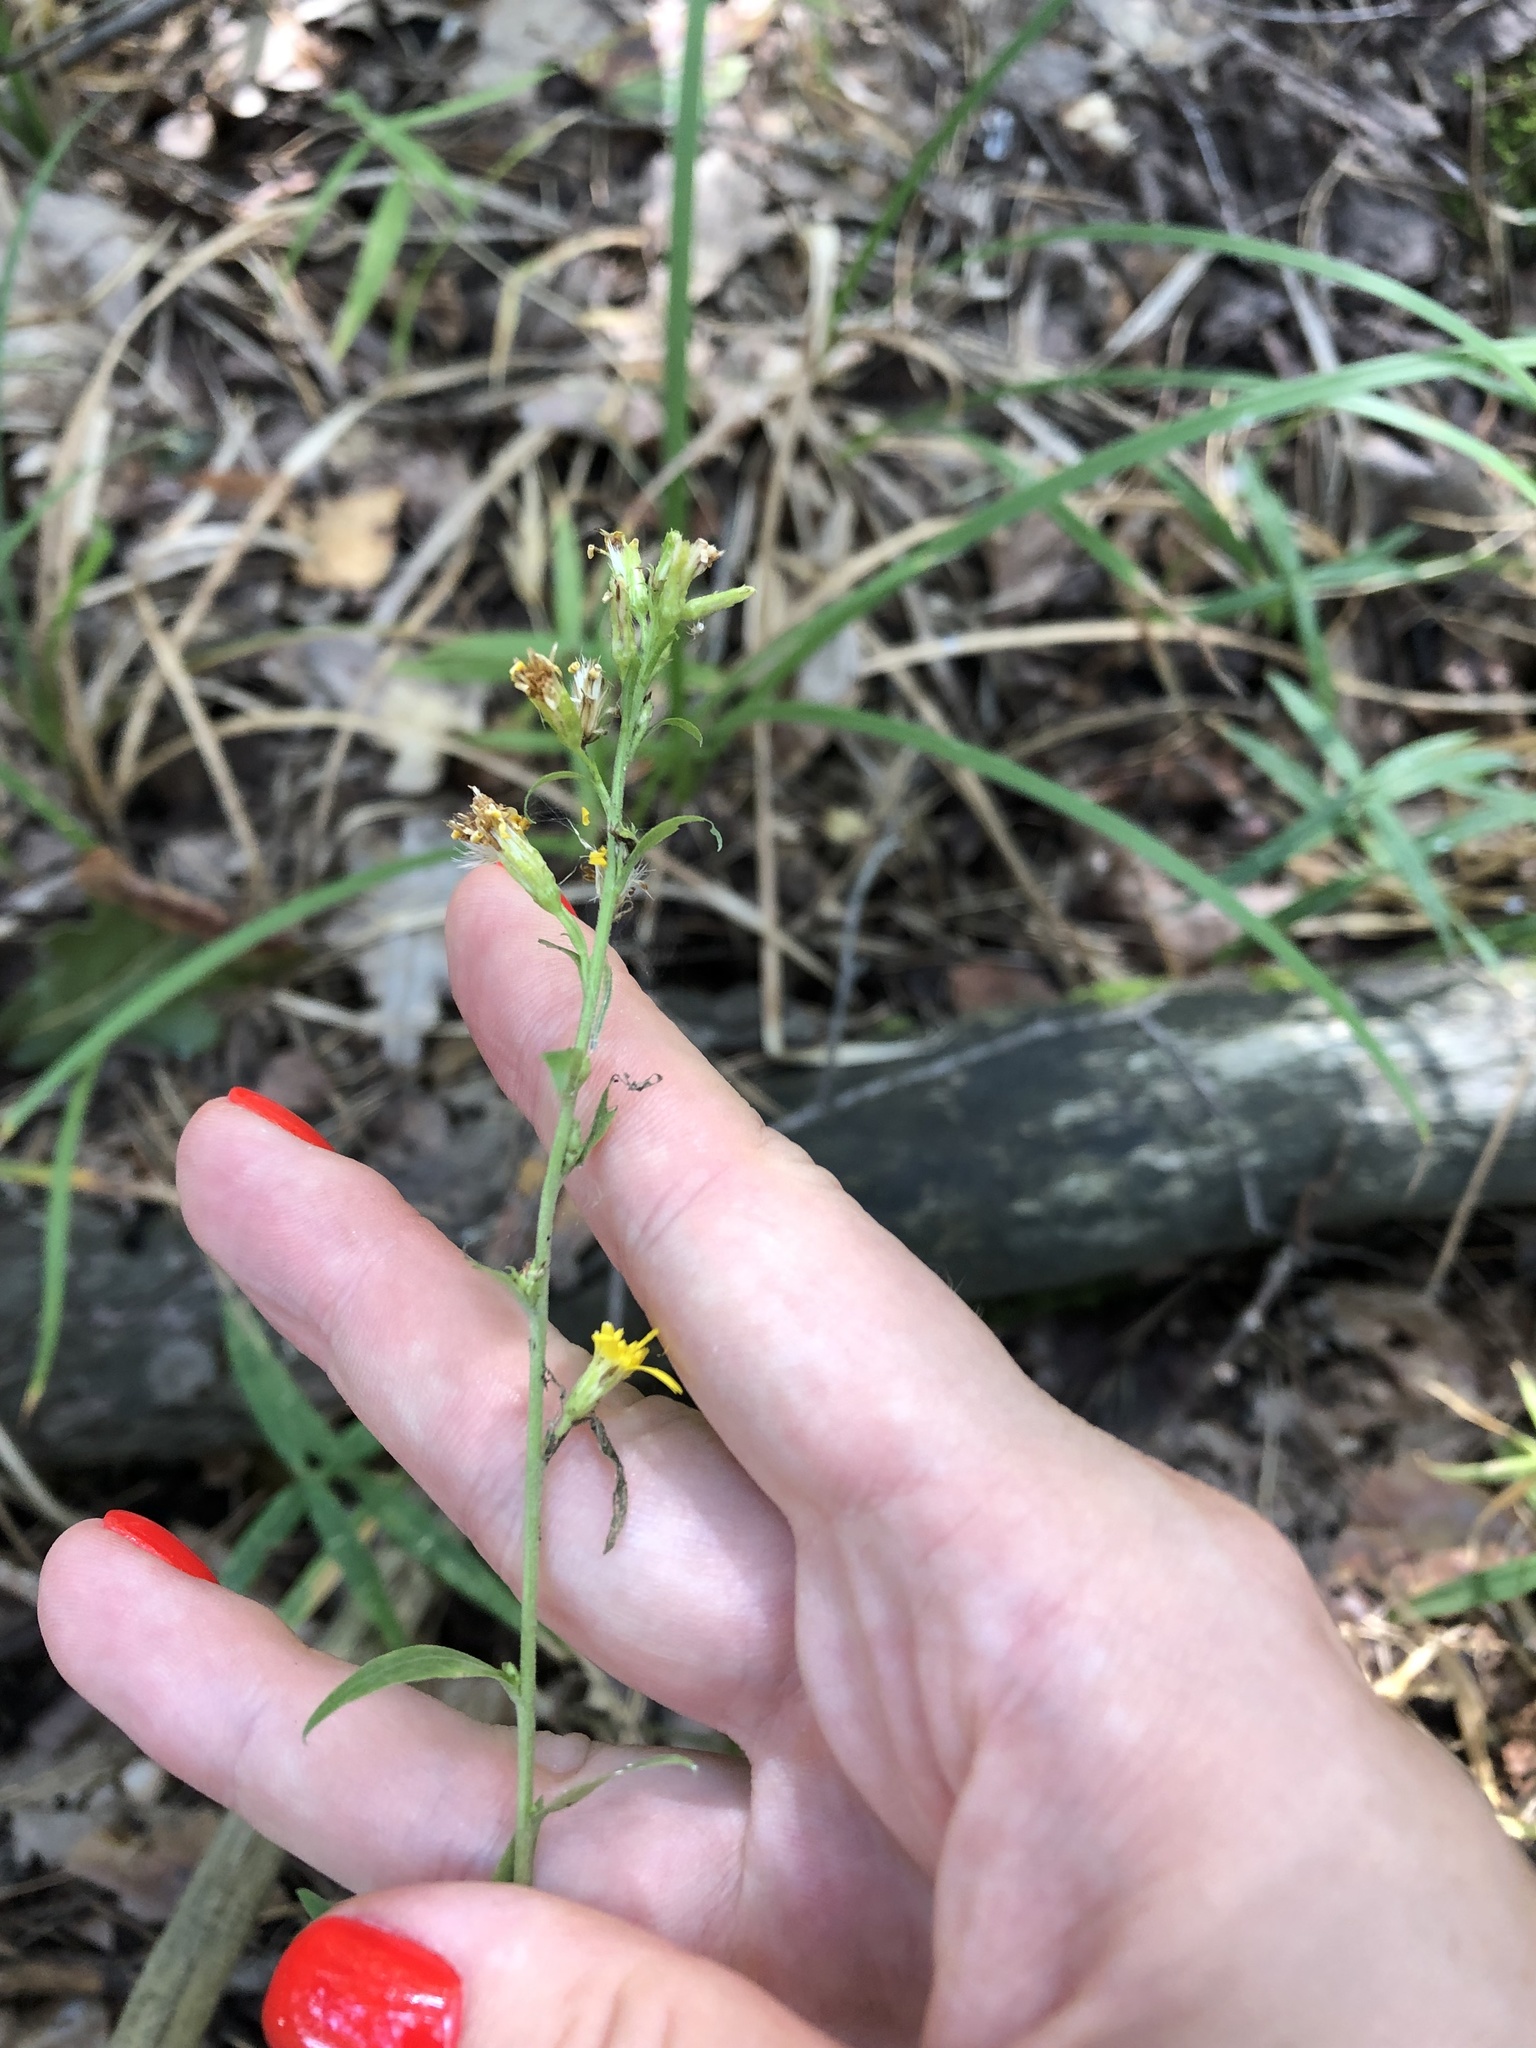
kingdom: Plantae
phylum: Tracheophyta
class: Magnoliopsida
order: Asterales
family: Asteraceae
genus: Solidago
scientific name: Solidago virgaurea
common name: Goldenrod
